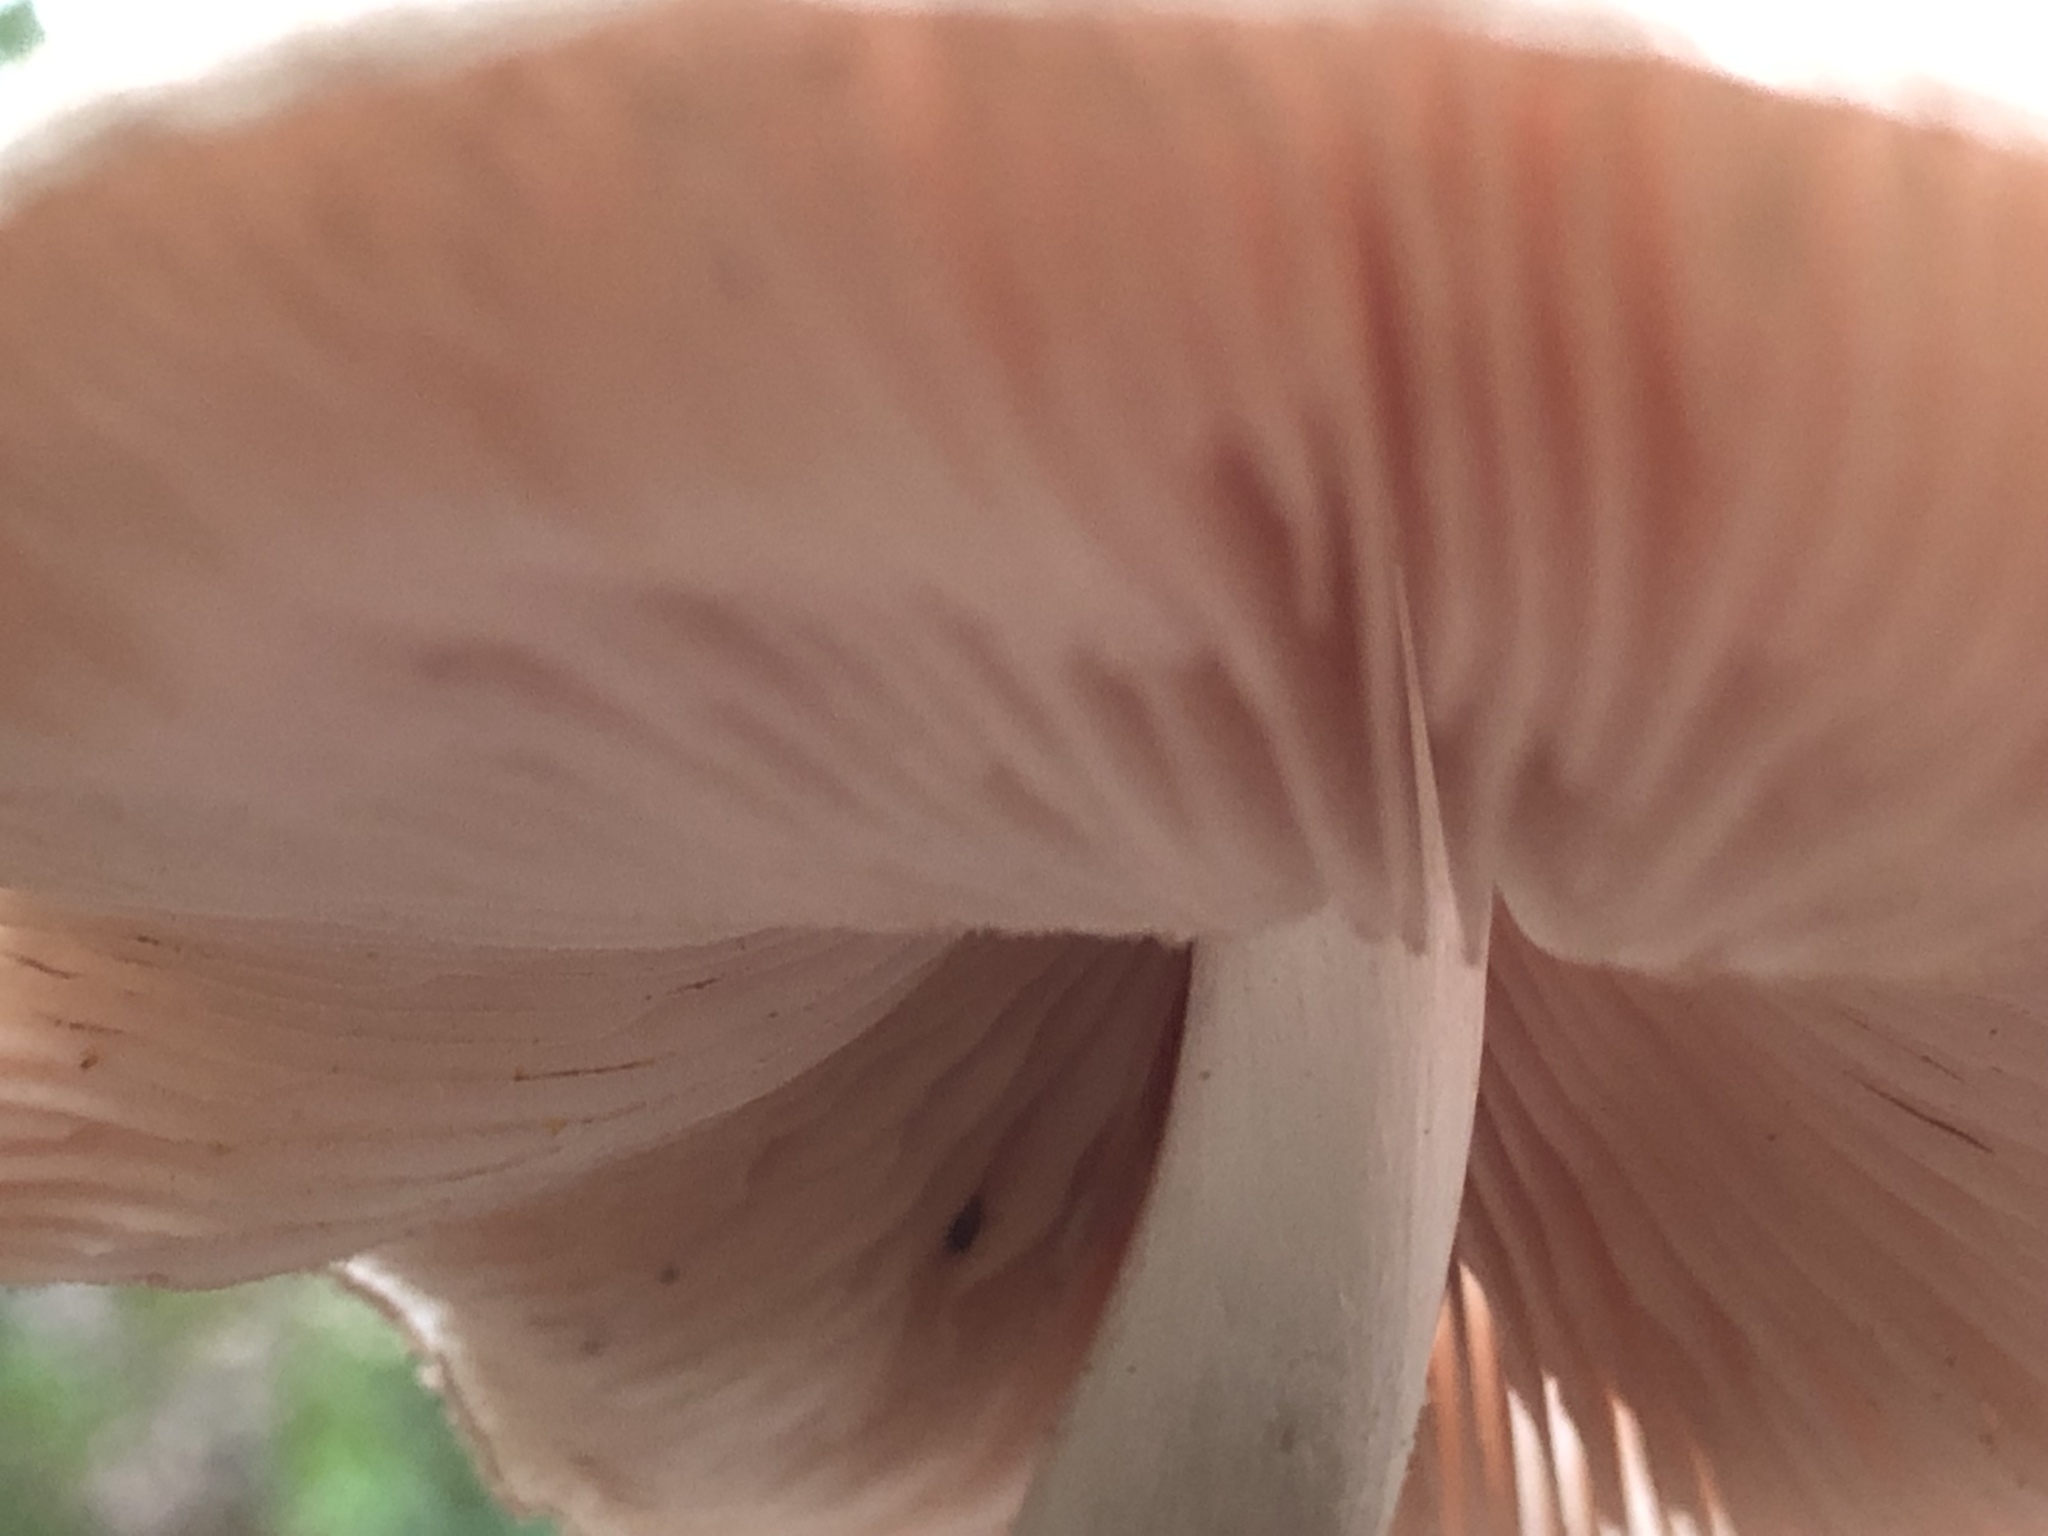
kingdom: Fungi
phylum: Basidiomycota
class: Agaricomycetes
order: Agaricales
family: Pluteaceae
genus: Pluteus
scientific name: Pluteus petasatus
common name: Scaly shield
